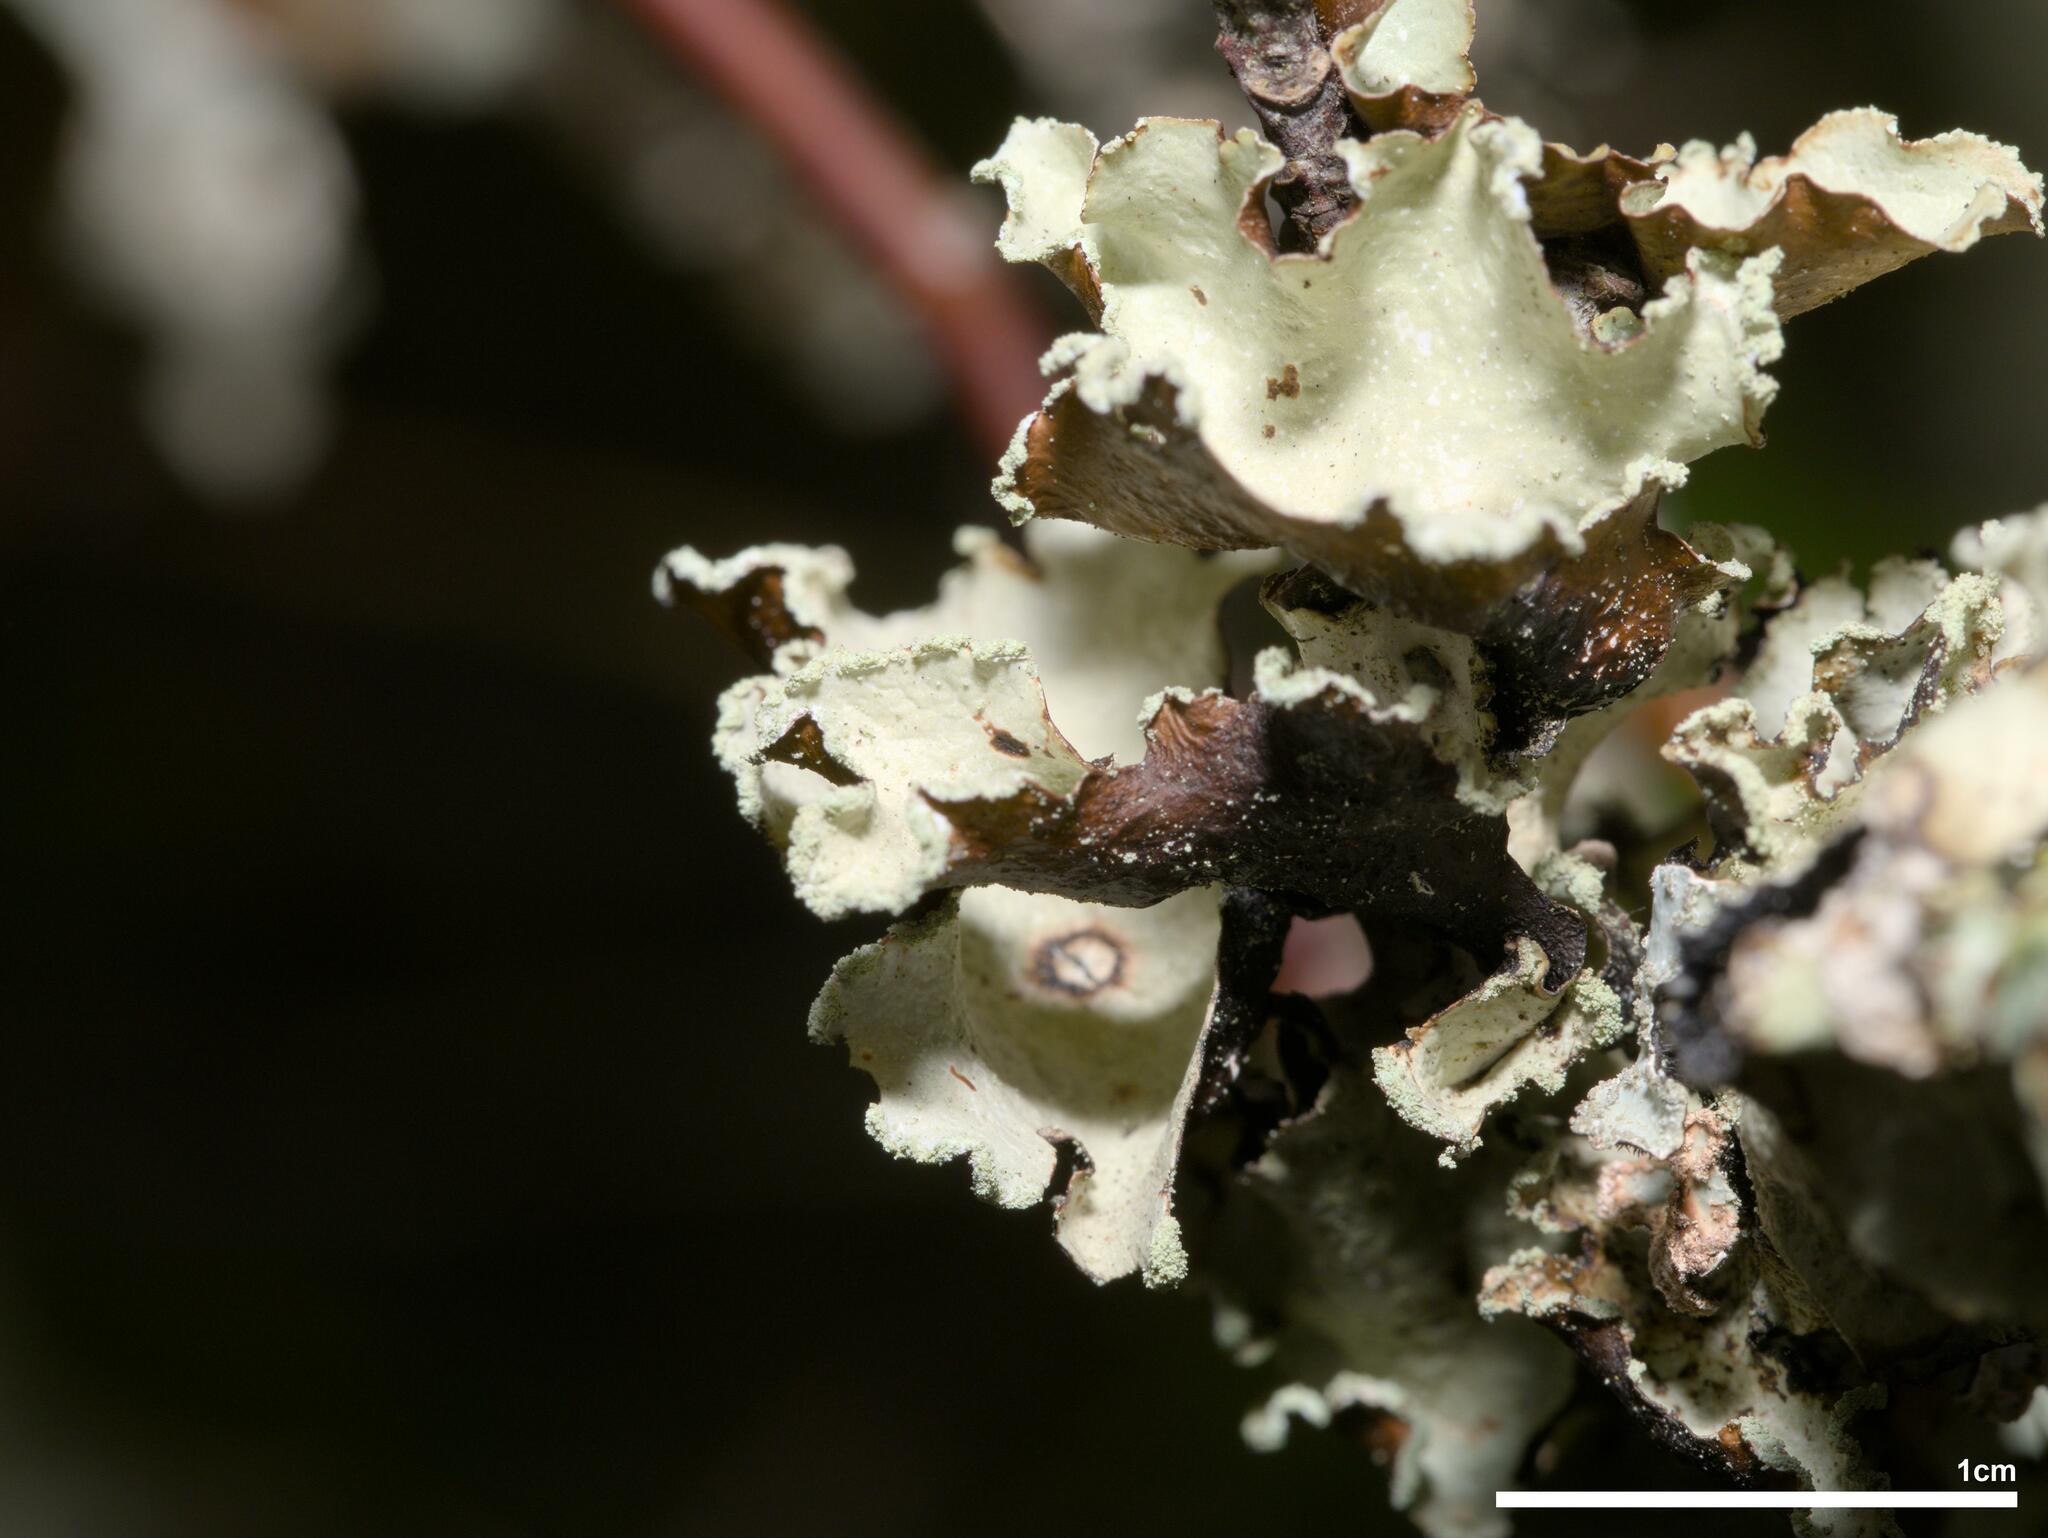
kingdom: Fungi
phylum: Ascomycota
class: Lecanoromycetes
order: Lecanorales
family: Parmeliaceae
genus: Cetrelia
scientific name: Cetrelia cetrarioides
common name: Speckled iceland lichen
